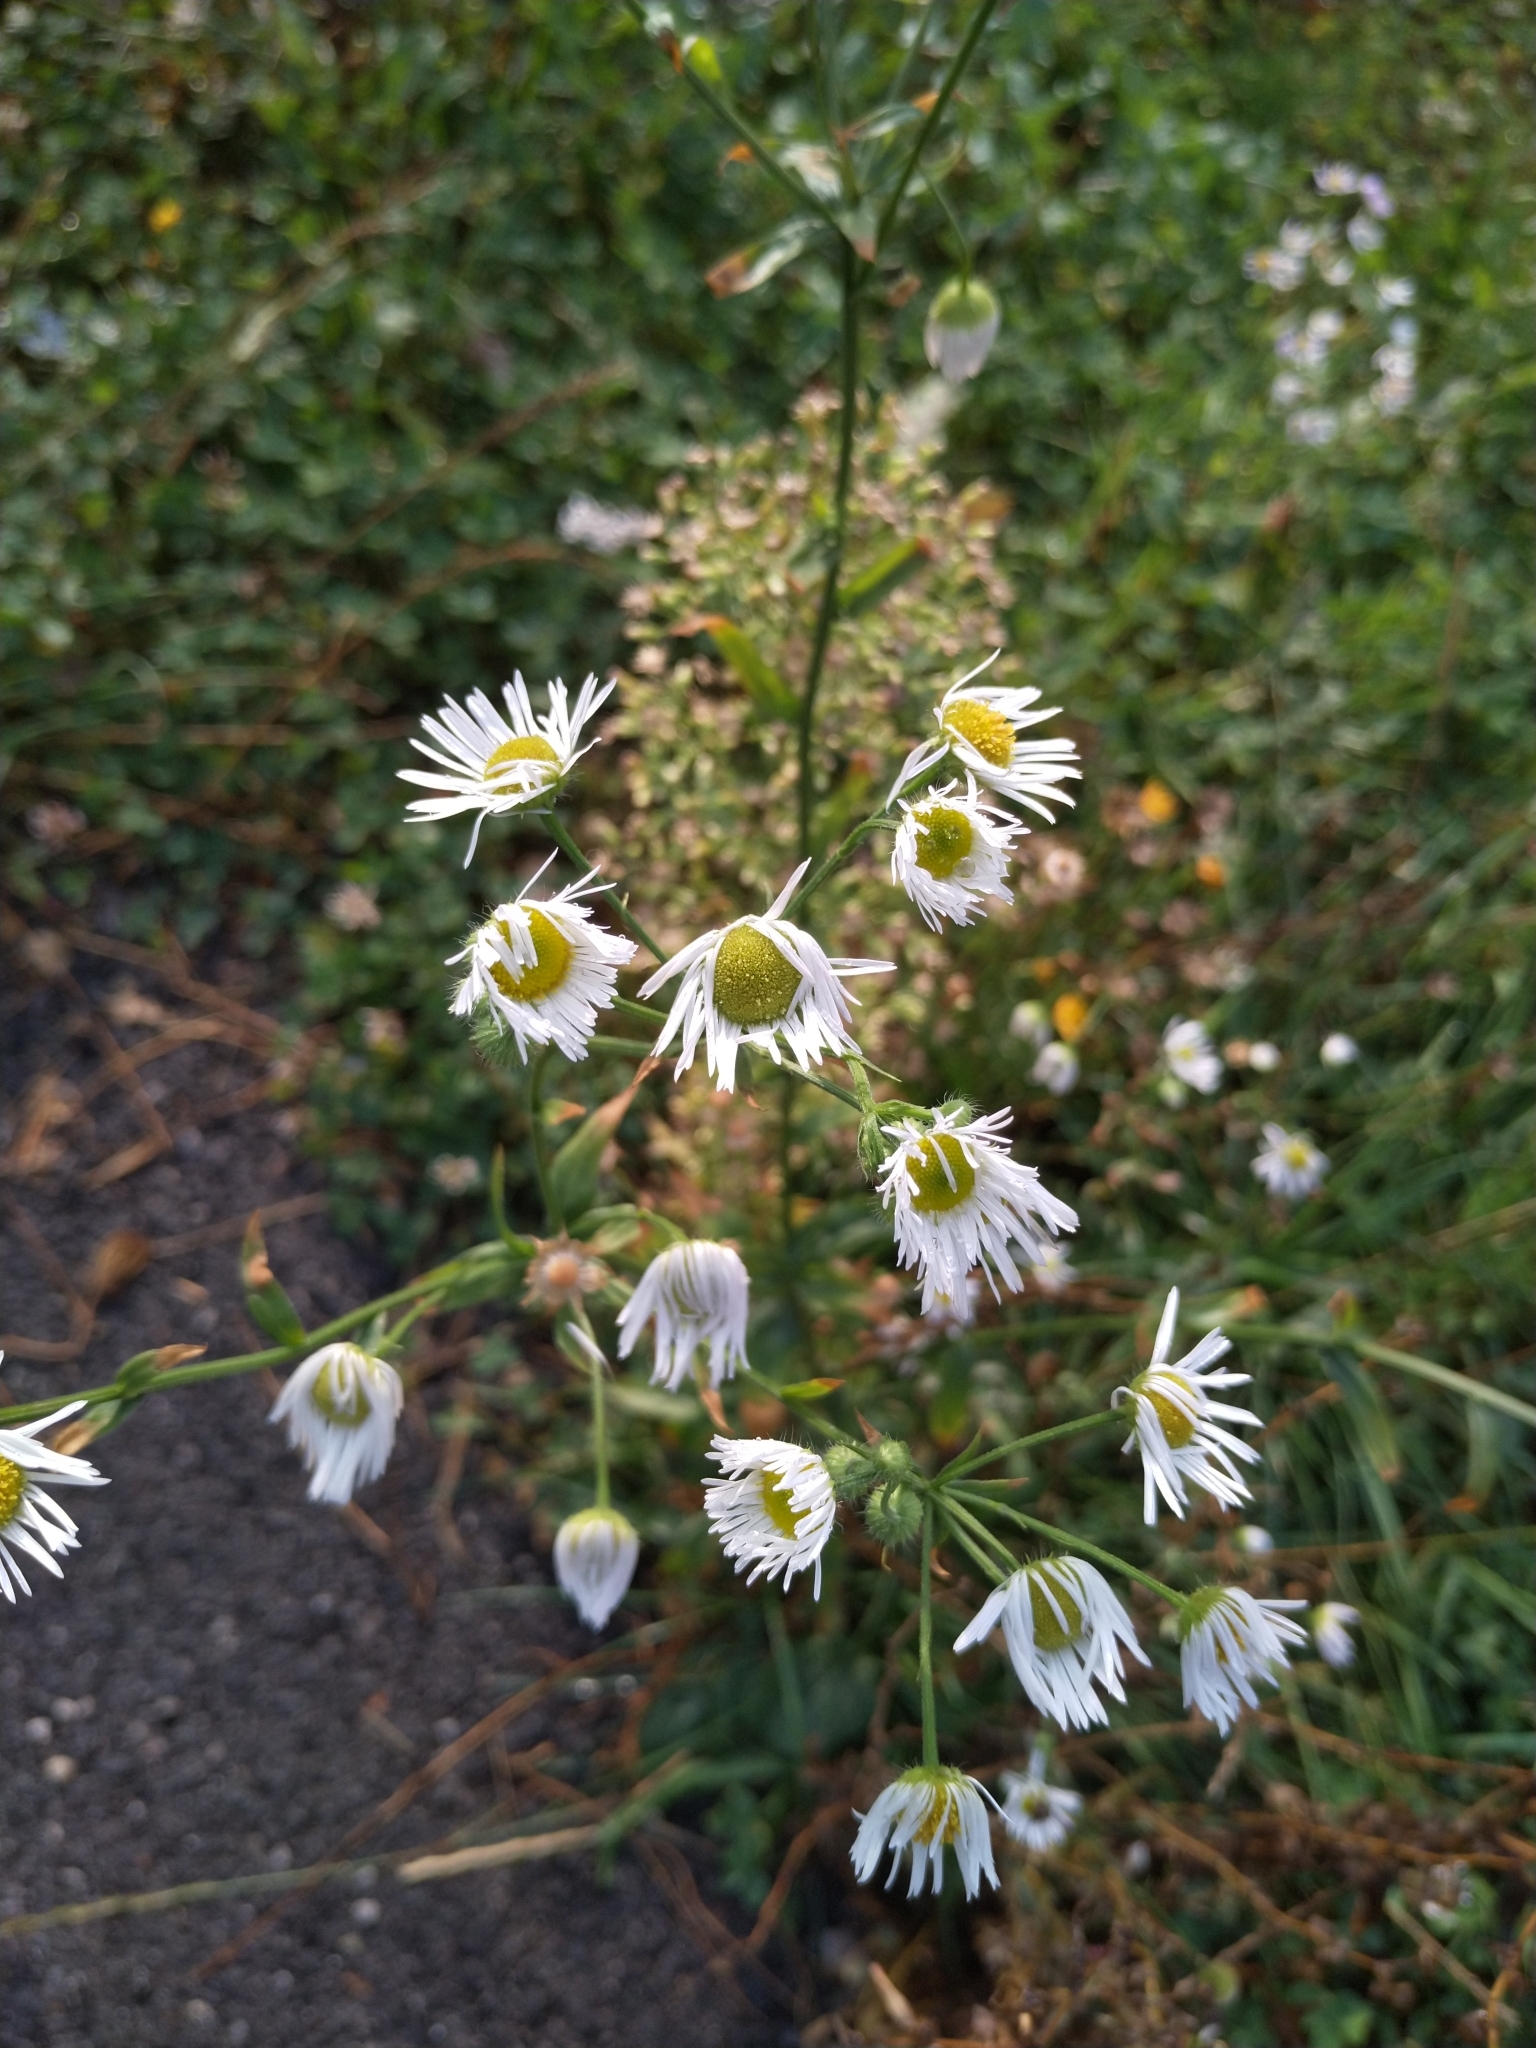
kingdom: Plantae
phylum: Tracheophyta
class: Magnoliopsida
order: Asterales
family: Asteraceae
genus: Erigeron
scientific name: Erigeron annuus
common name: Tall fleabane
